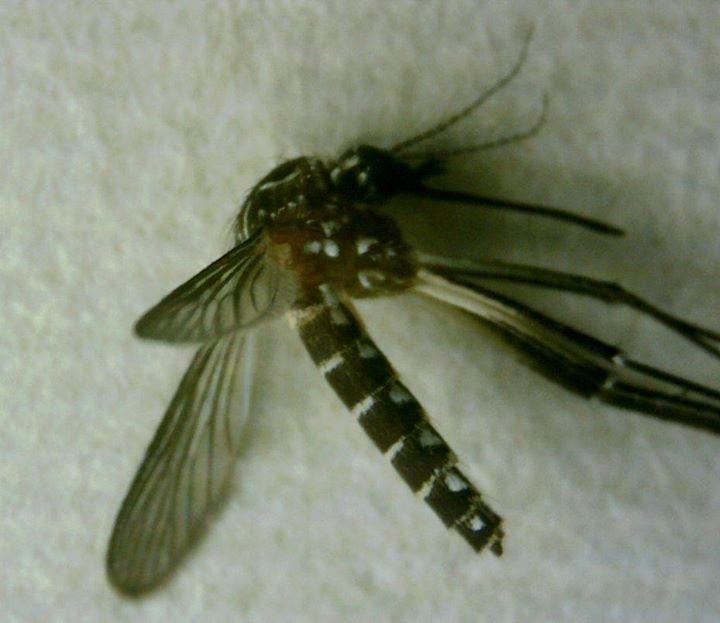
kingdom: Animalia
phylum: Arthropoda
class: Insecta
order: Diptera
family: Culicidae
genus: Aedes
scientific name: Aedes aegypti
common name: Yellow fever mosquito
